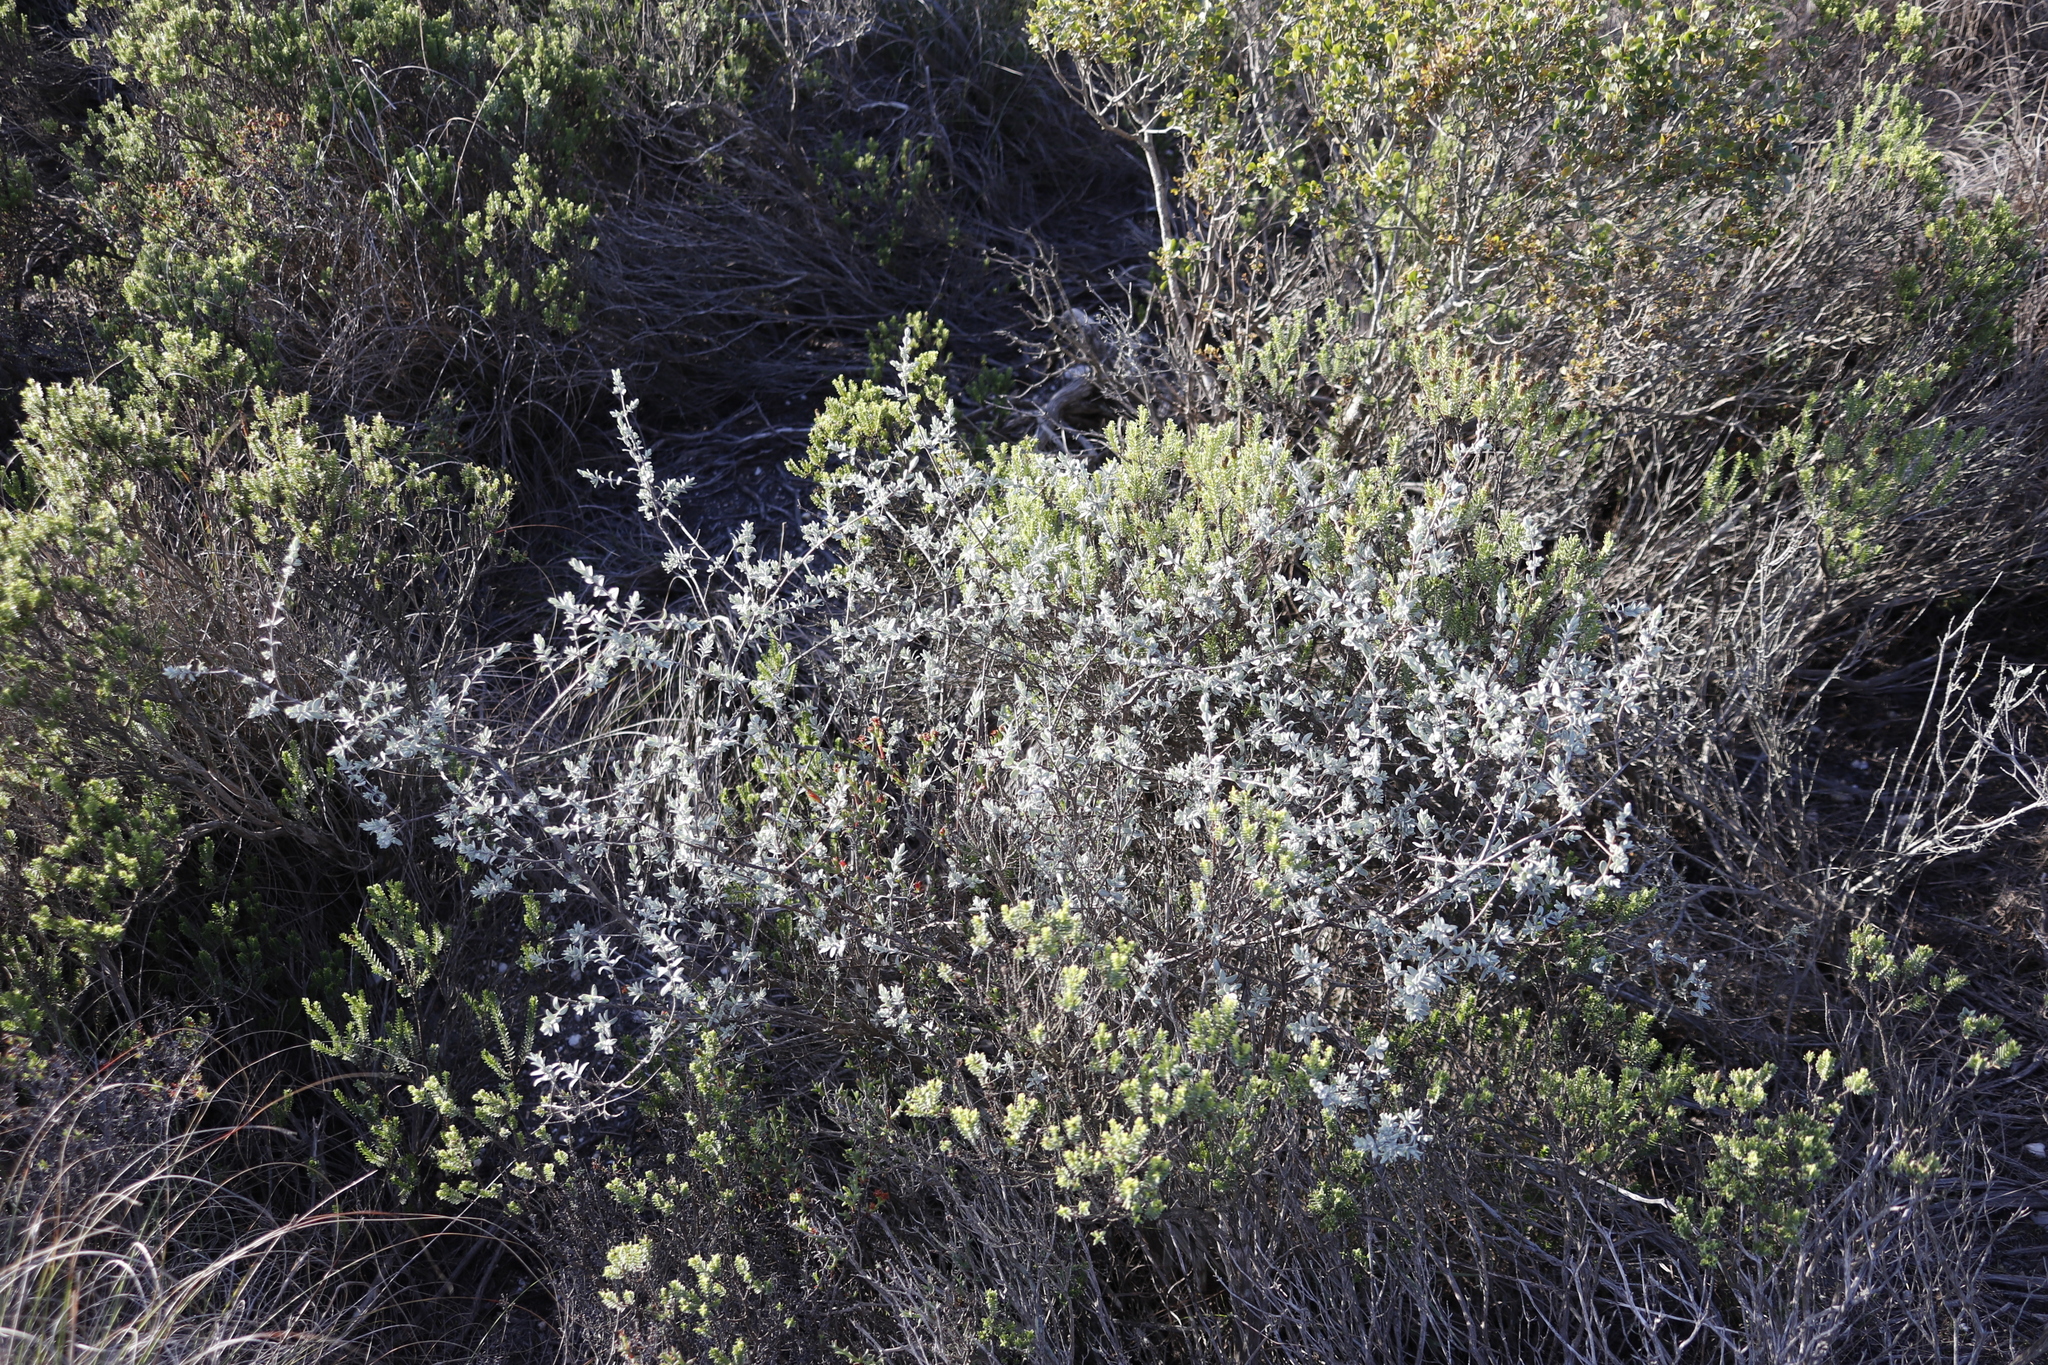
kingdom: Plantae
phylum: Tracheophyta
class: Magnoliopsida
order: Asterales
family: Asteraceae
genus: Pteronia
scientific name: Pteronia incana
